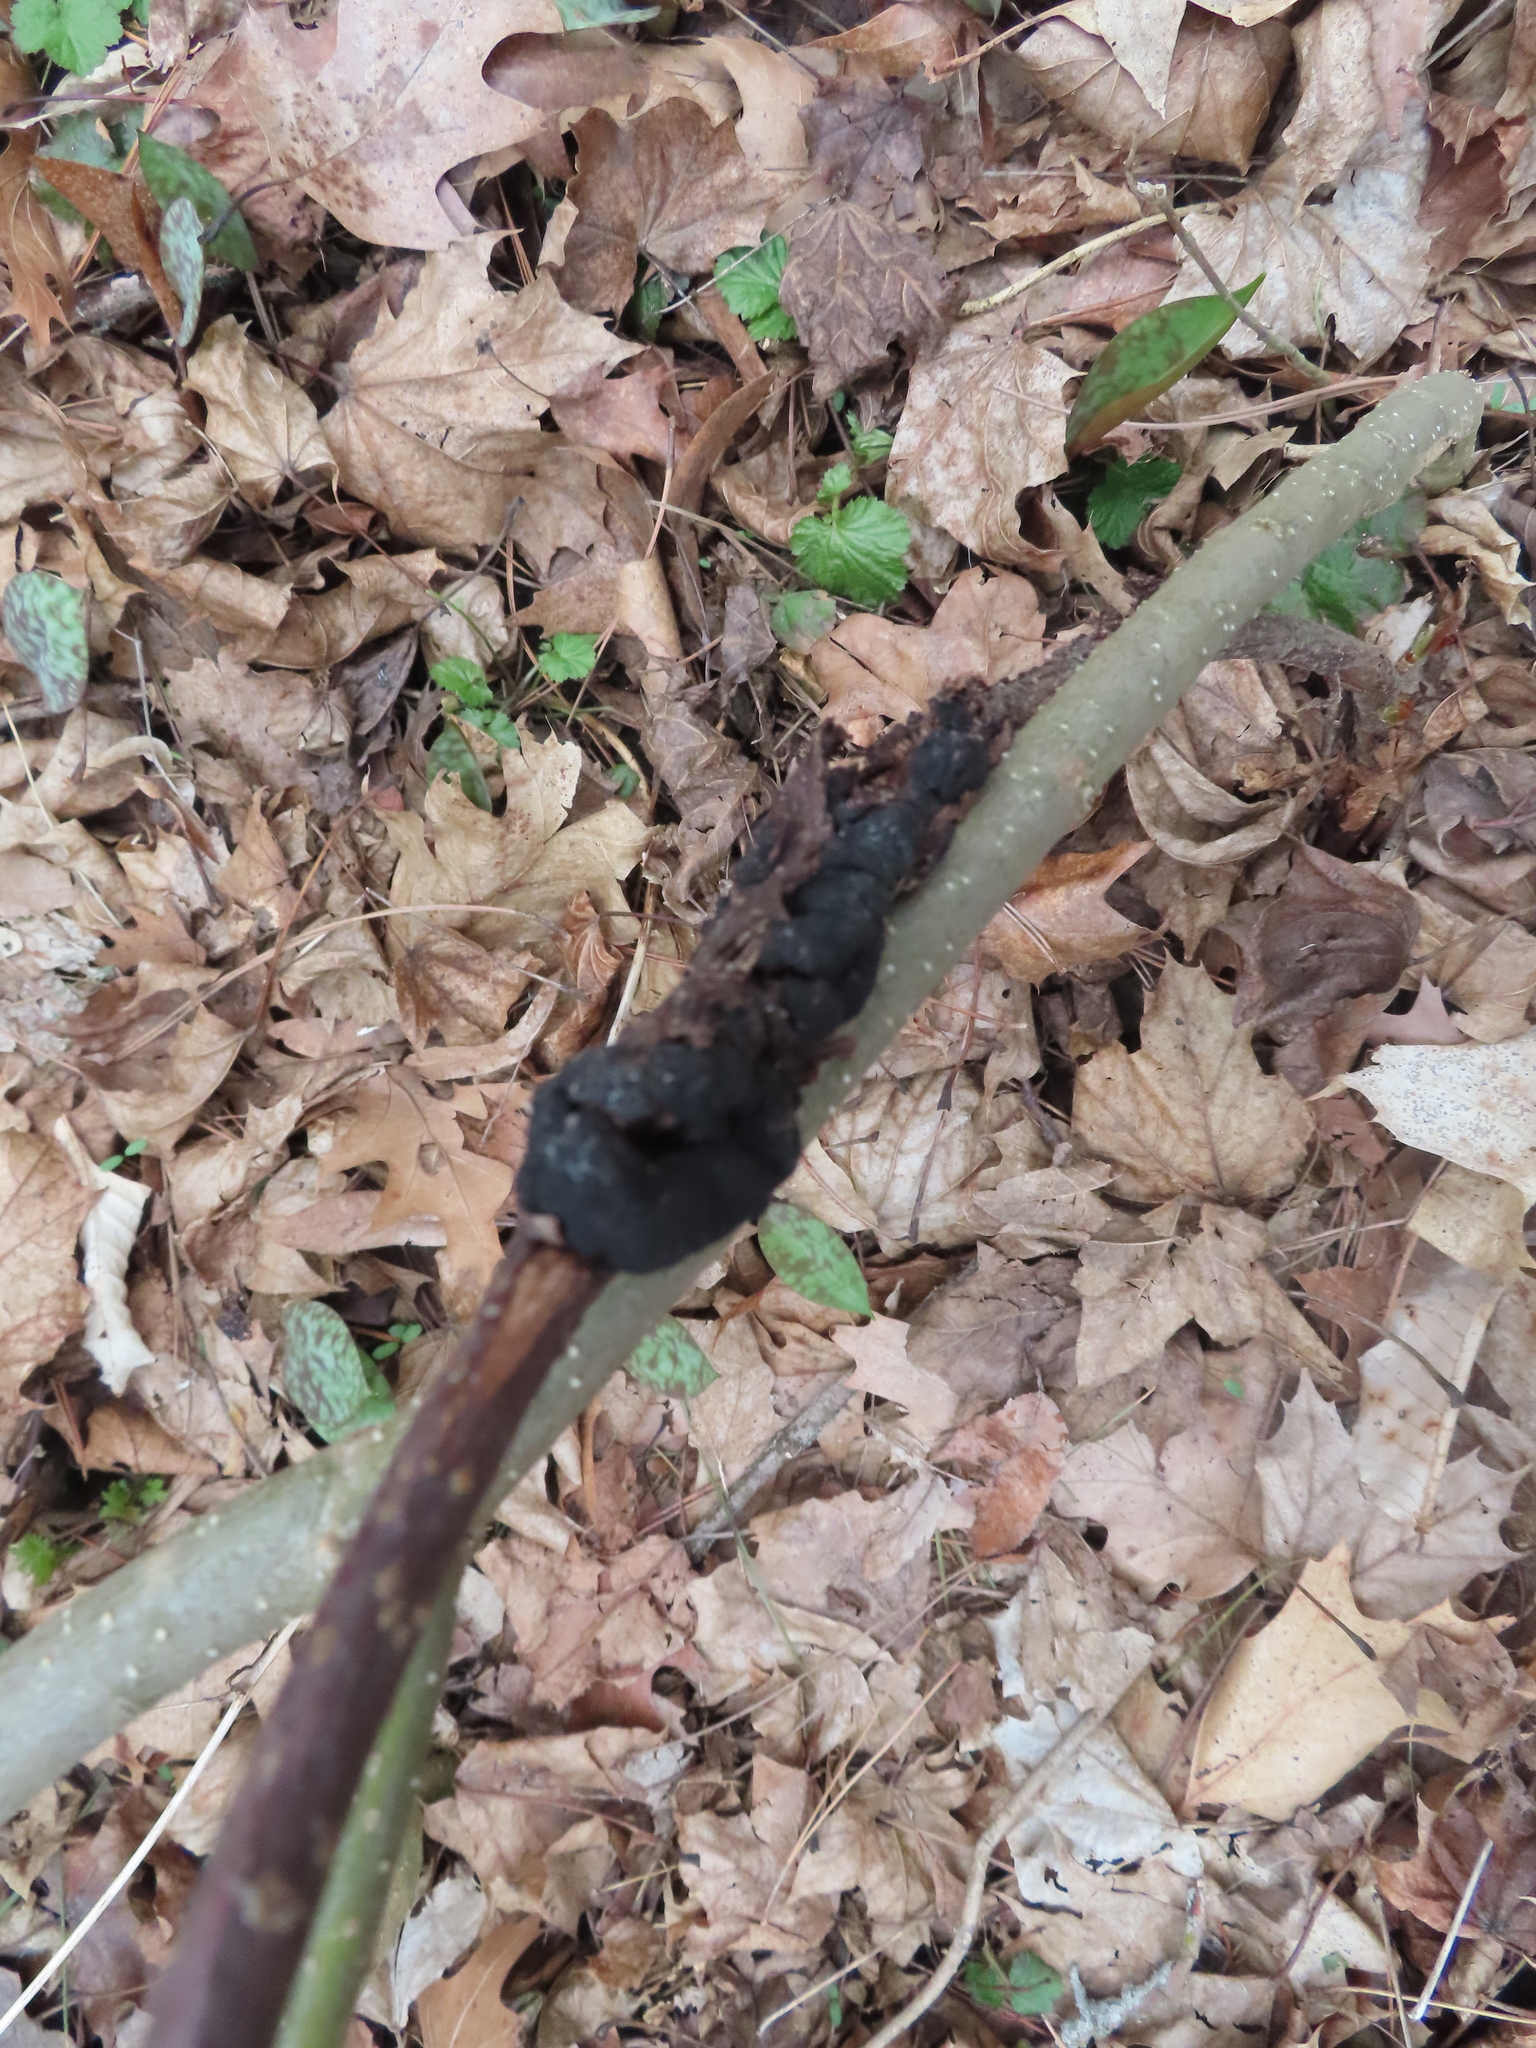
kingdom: Fungi
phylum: Ascomycota
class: Dothideomycetes
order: Venturiales
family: Venturiaceae
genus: Apiosporina
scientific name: Apiosporina morbosa
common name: Black knot
